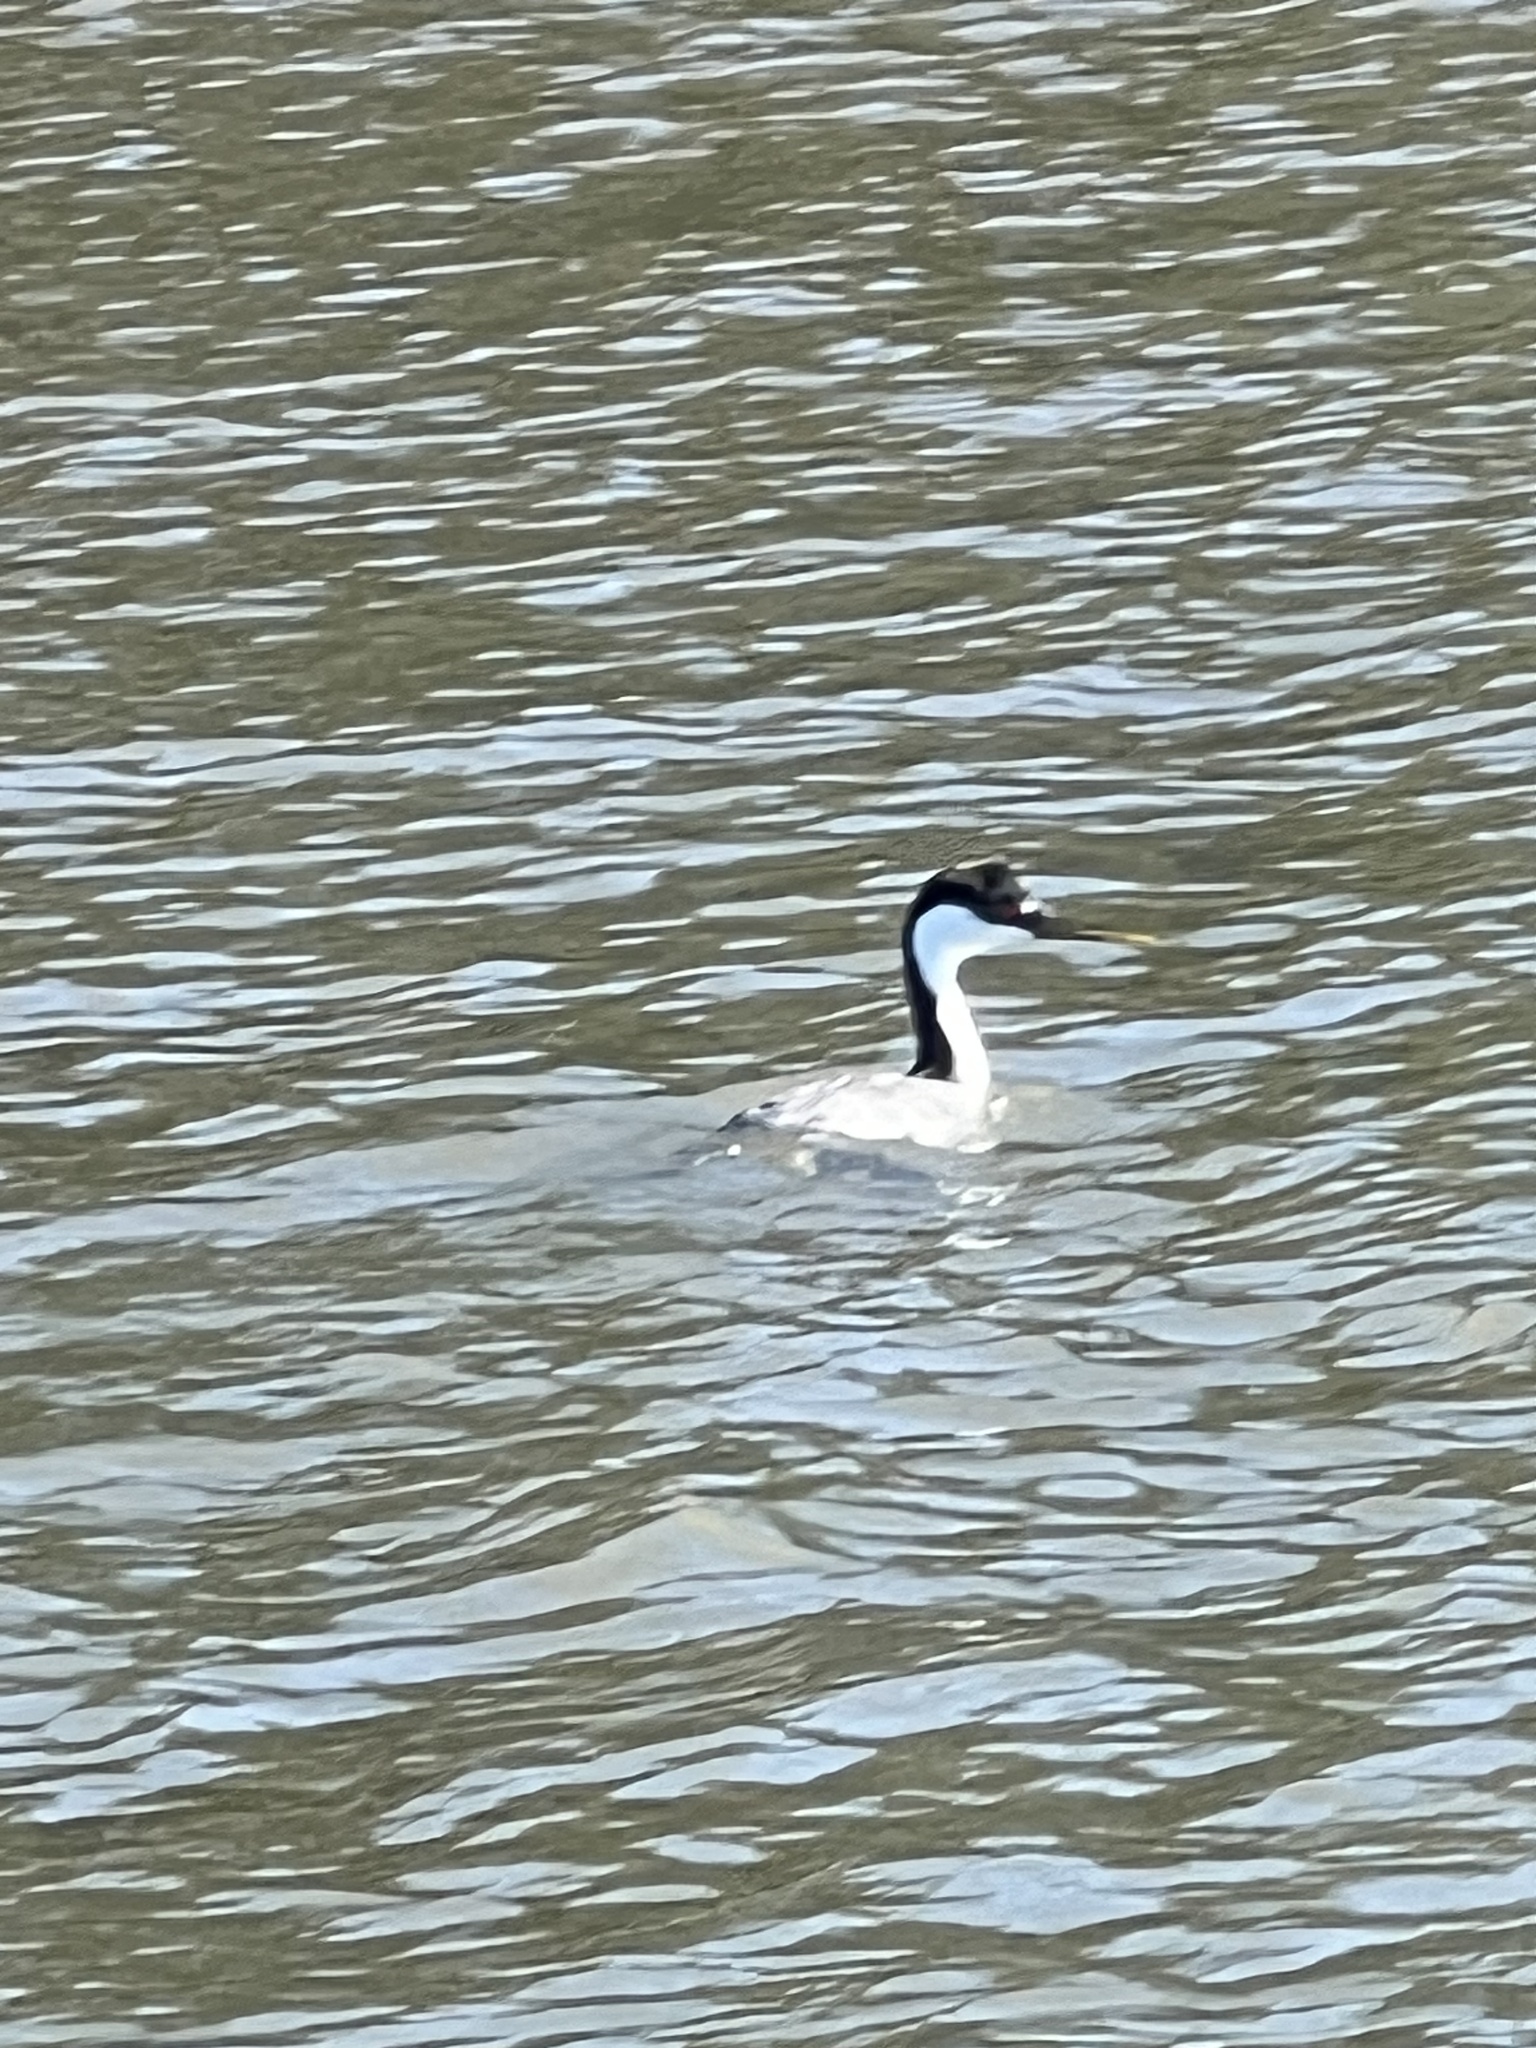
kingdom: Animalia
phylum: Chordata
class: Aves
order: Podicipediformes
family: Podicipedidae
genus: Aechmophorus
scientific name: Aechmophorus occidentalis
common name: Western grebe
